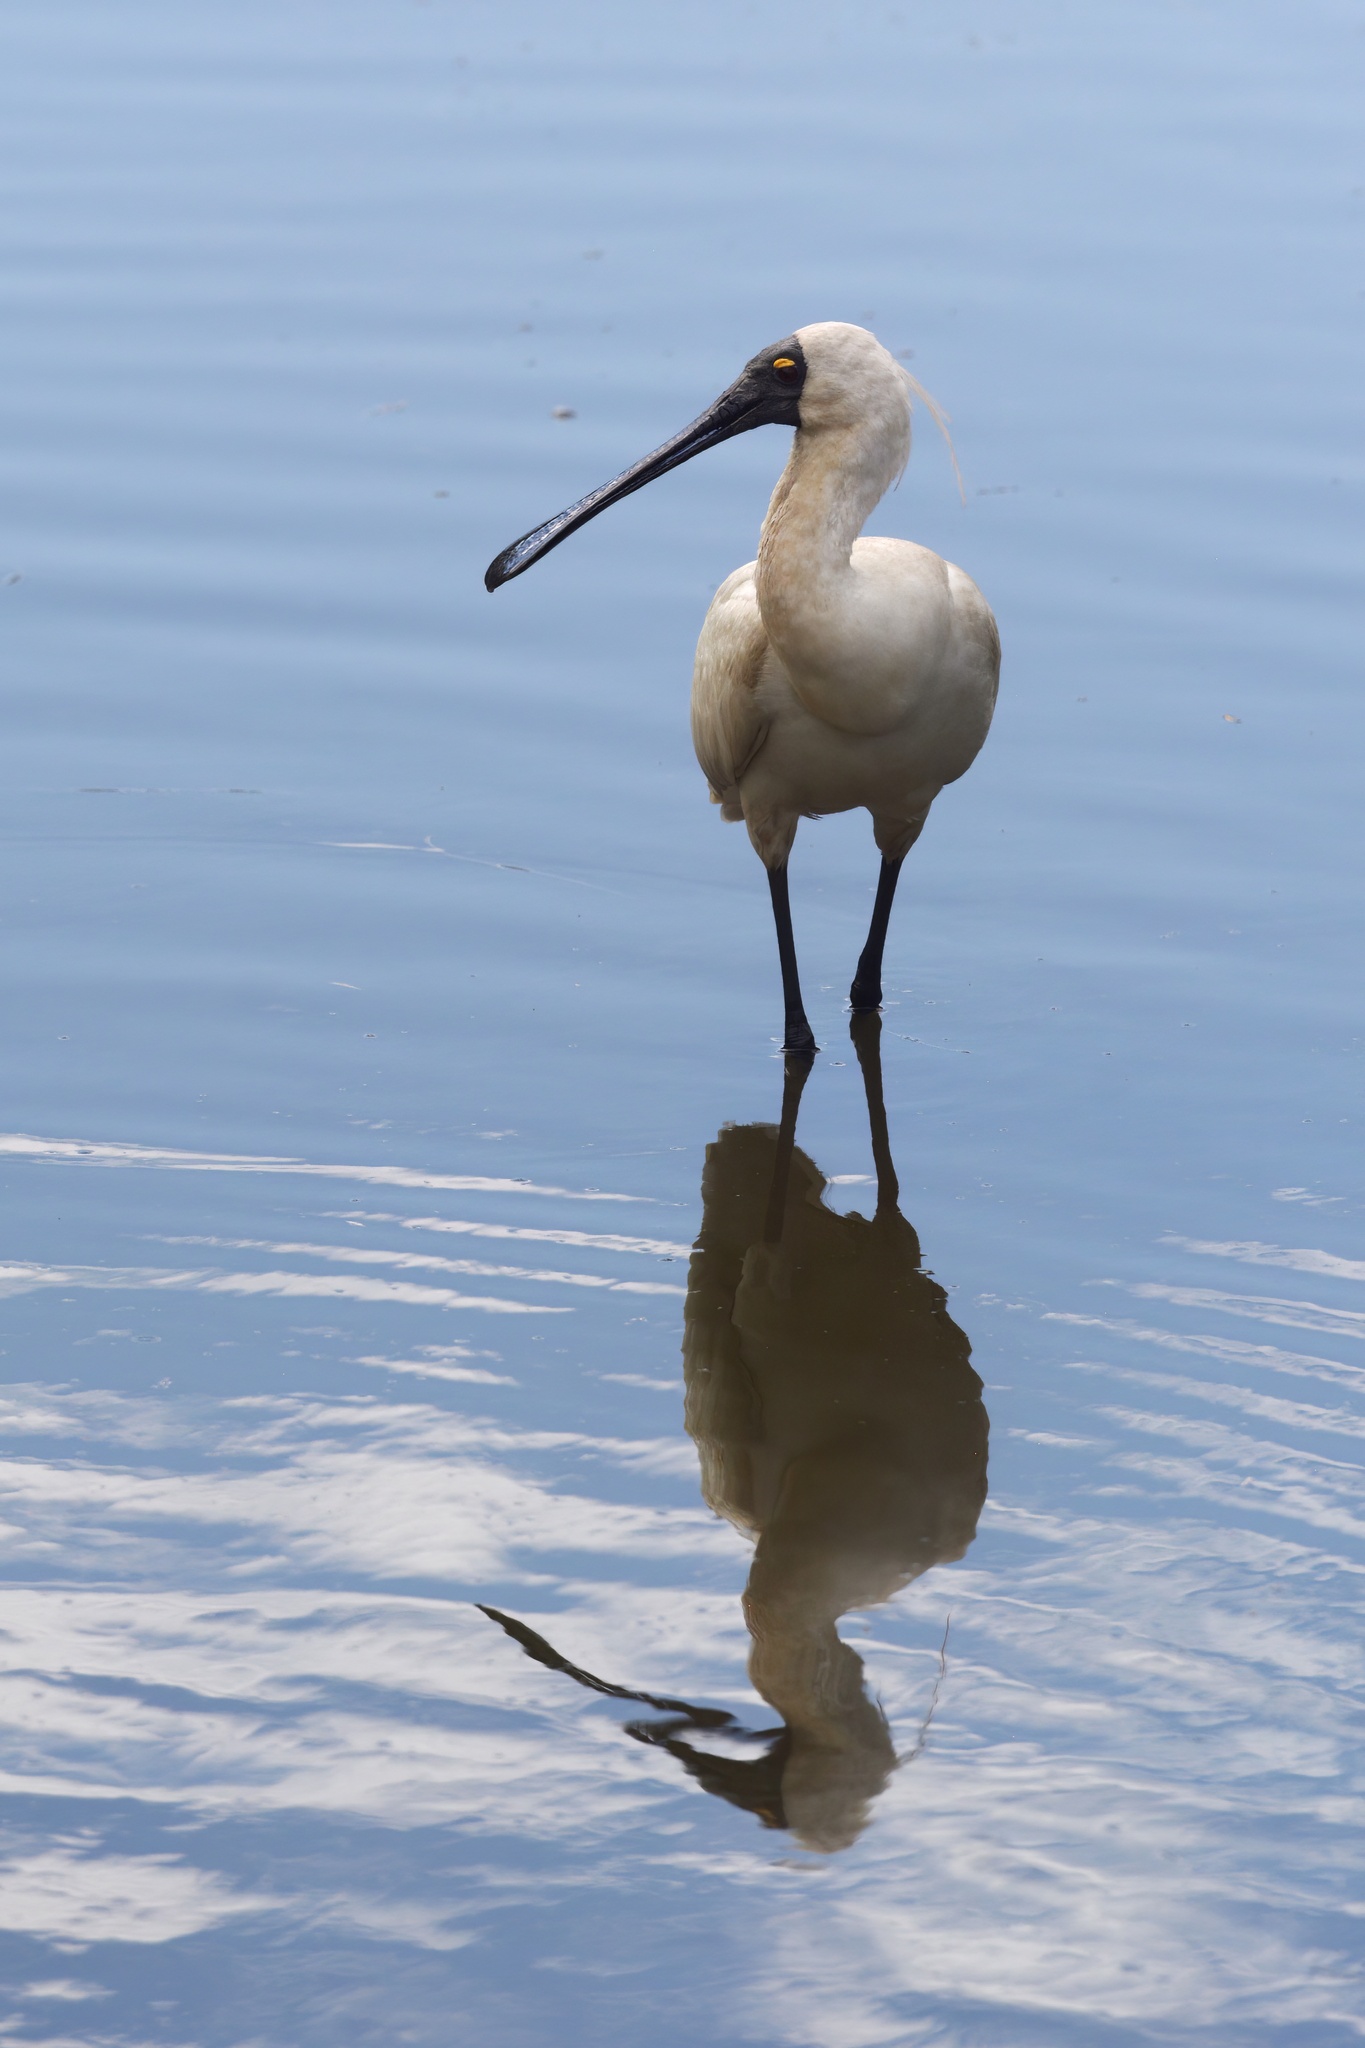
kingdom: Animalia
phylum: Chordata
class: Aves
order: Pelecaniformes
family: Threskiornithidae
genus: Platalea
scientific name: Platalea regia
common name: Royal spoonbill
